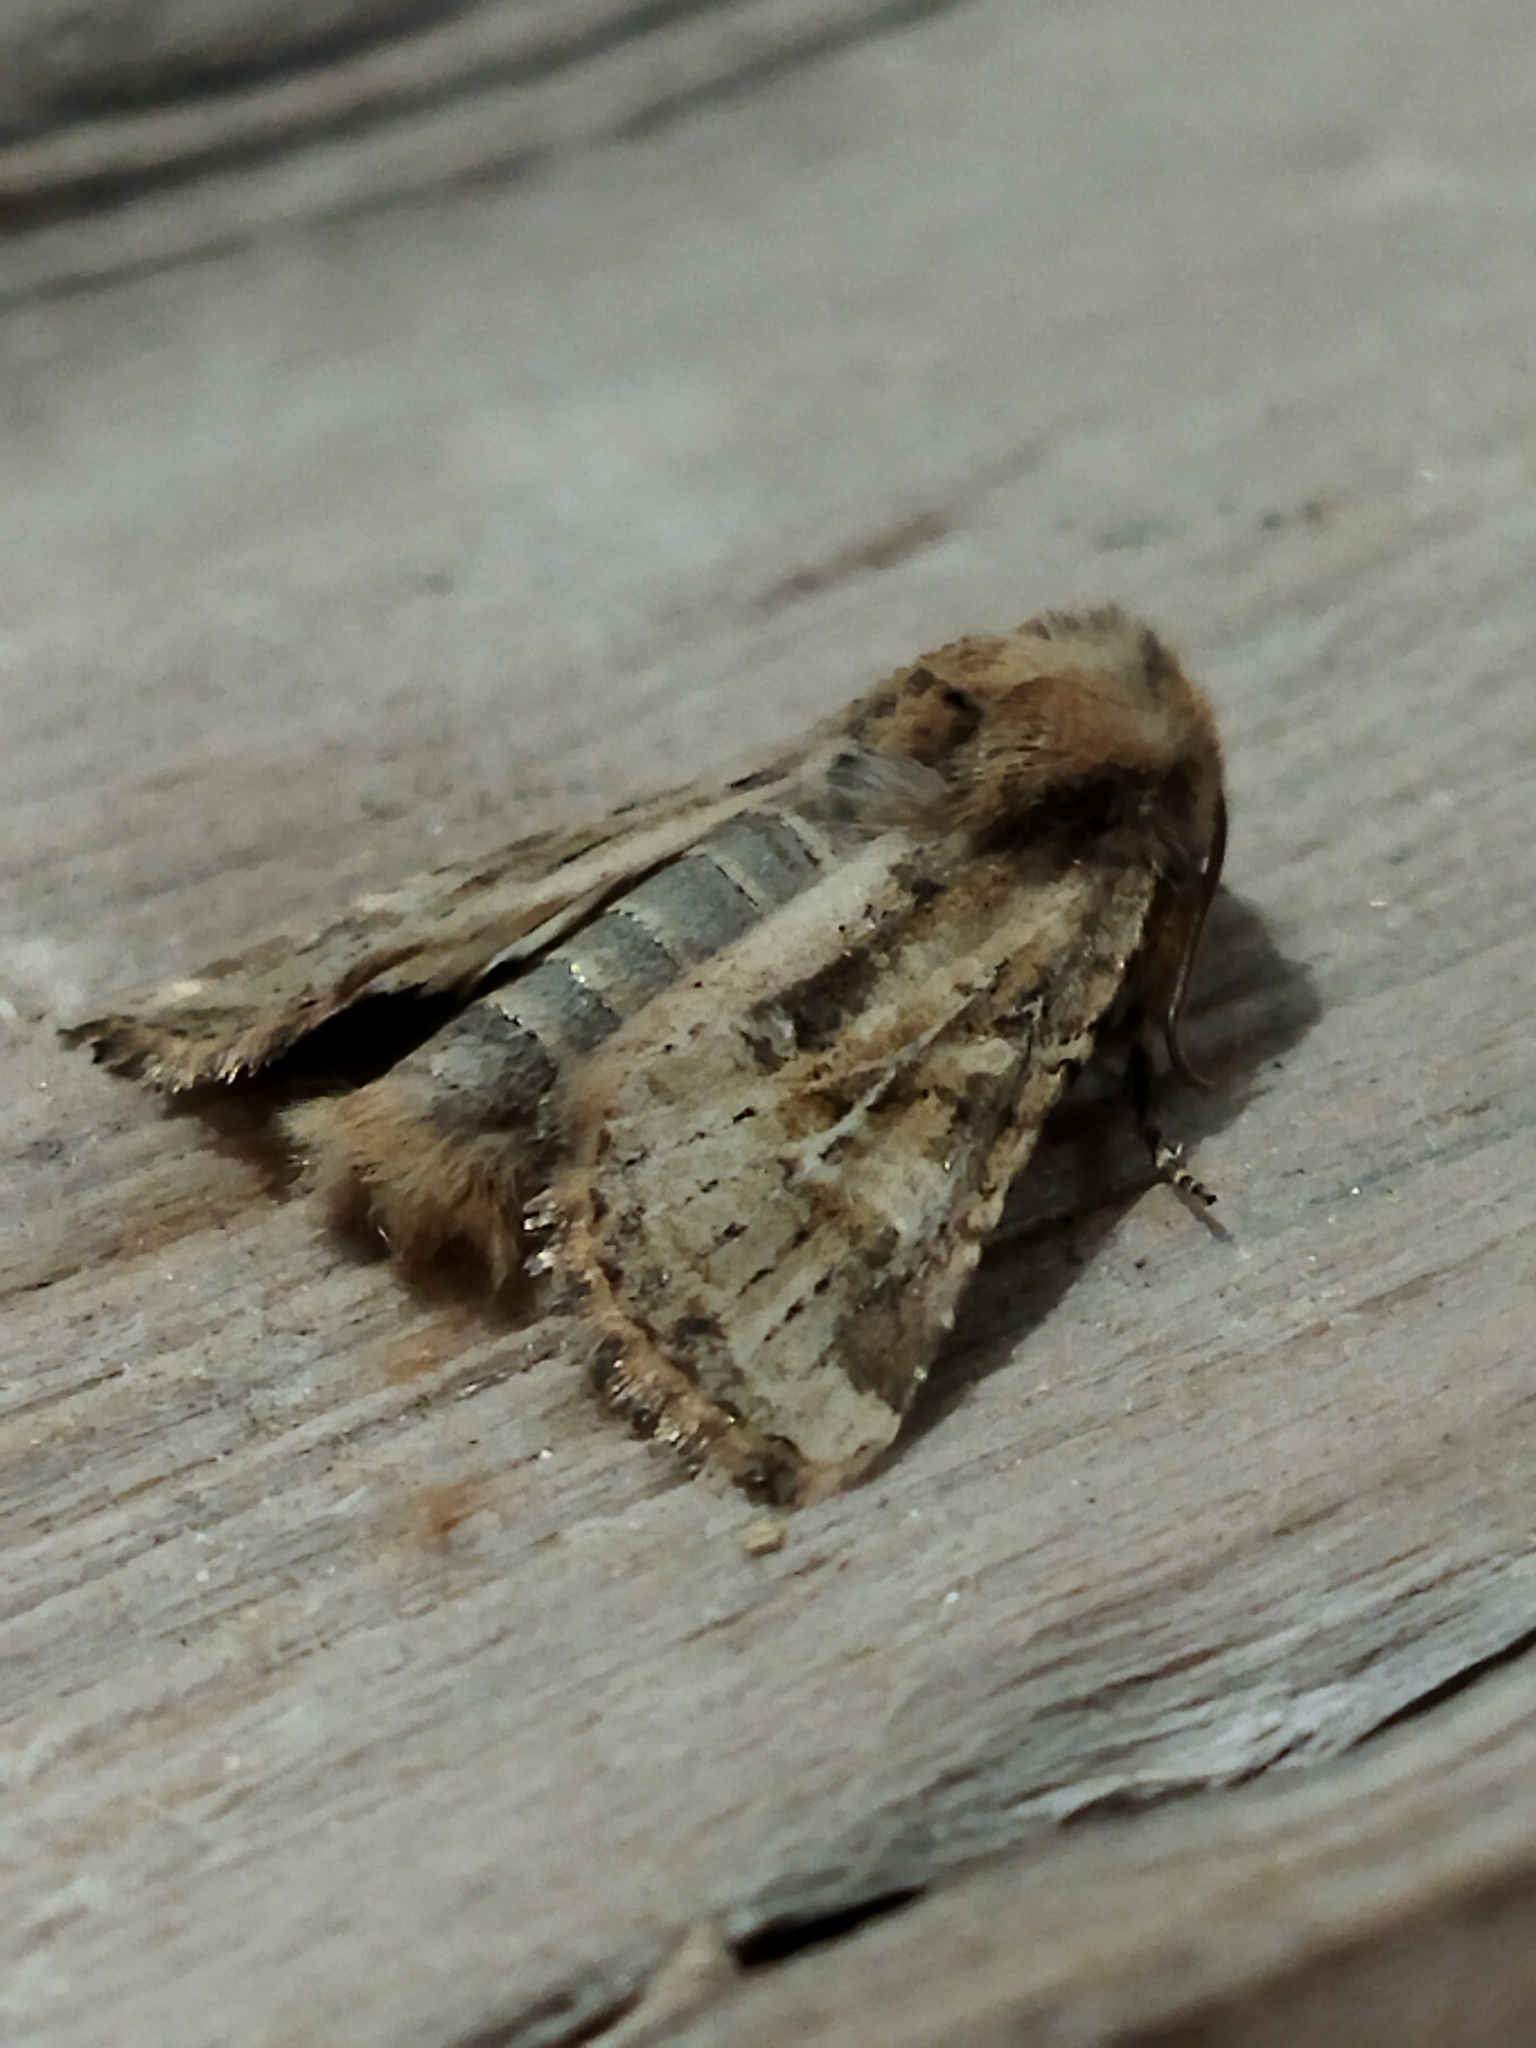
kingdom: Animalia
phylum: Arthropoda
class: Insecta
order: Lepidoptera
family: Noctuidae
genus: Luperina
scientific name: Luperina dumerilii
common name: Dumeril's rustic
